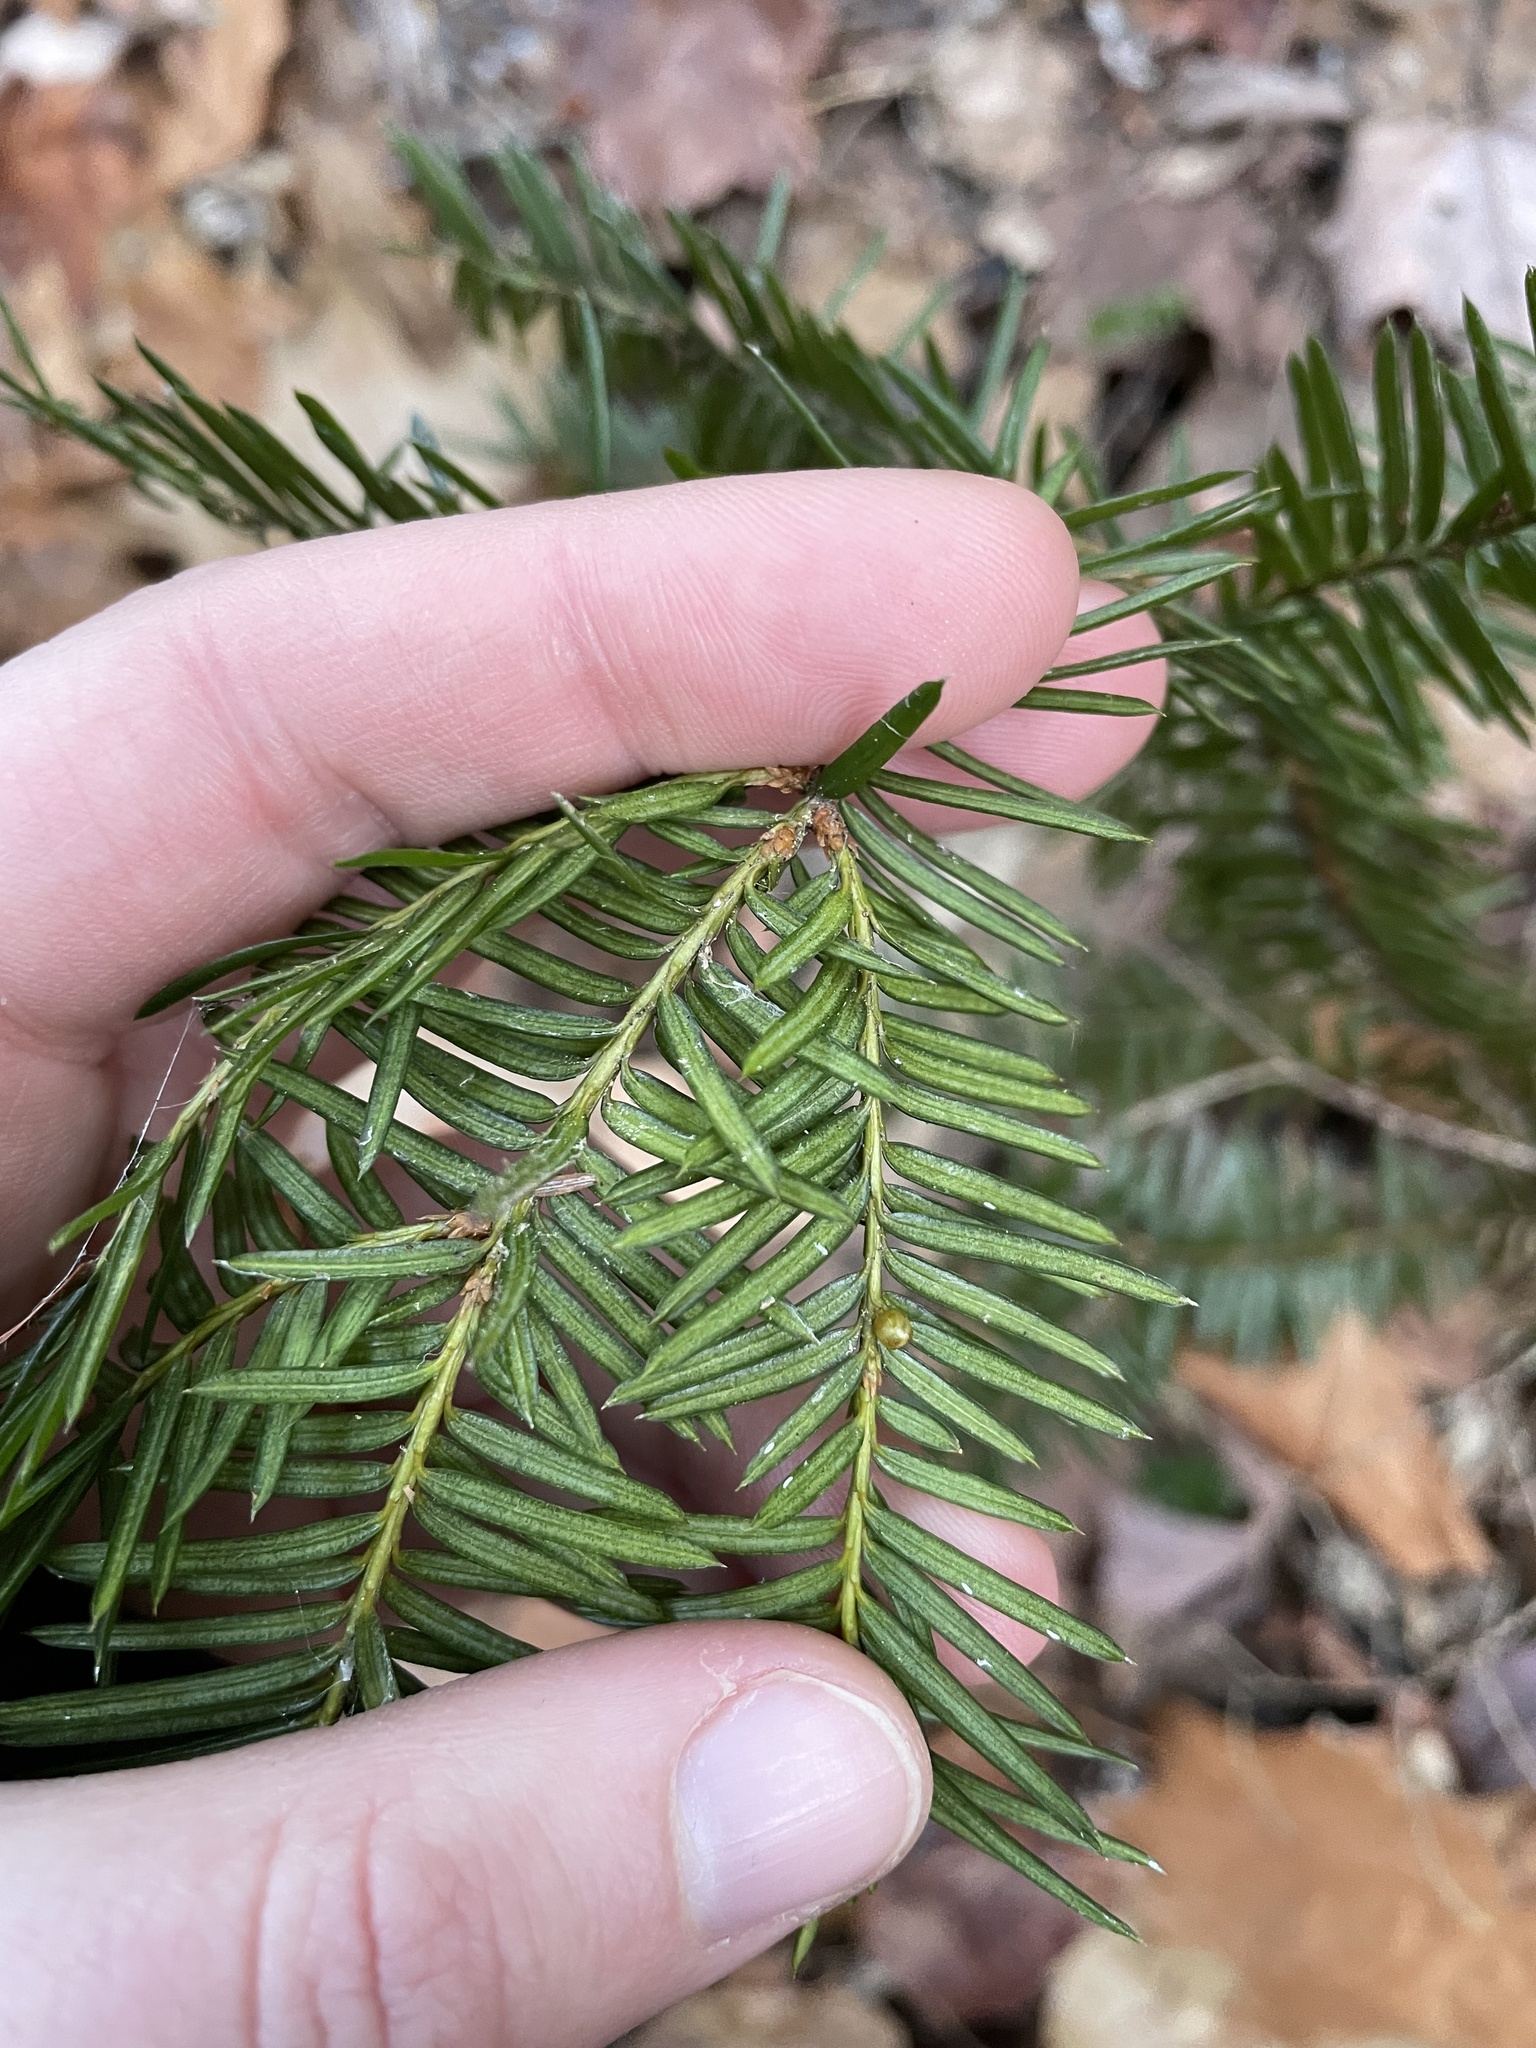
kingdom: Plantae
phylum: Tracheophyta
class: Pinopsida
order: Pinales
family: Taxaceae
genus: Taxus
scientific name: Taxus canadensis
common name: American yew
